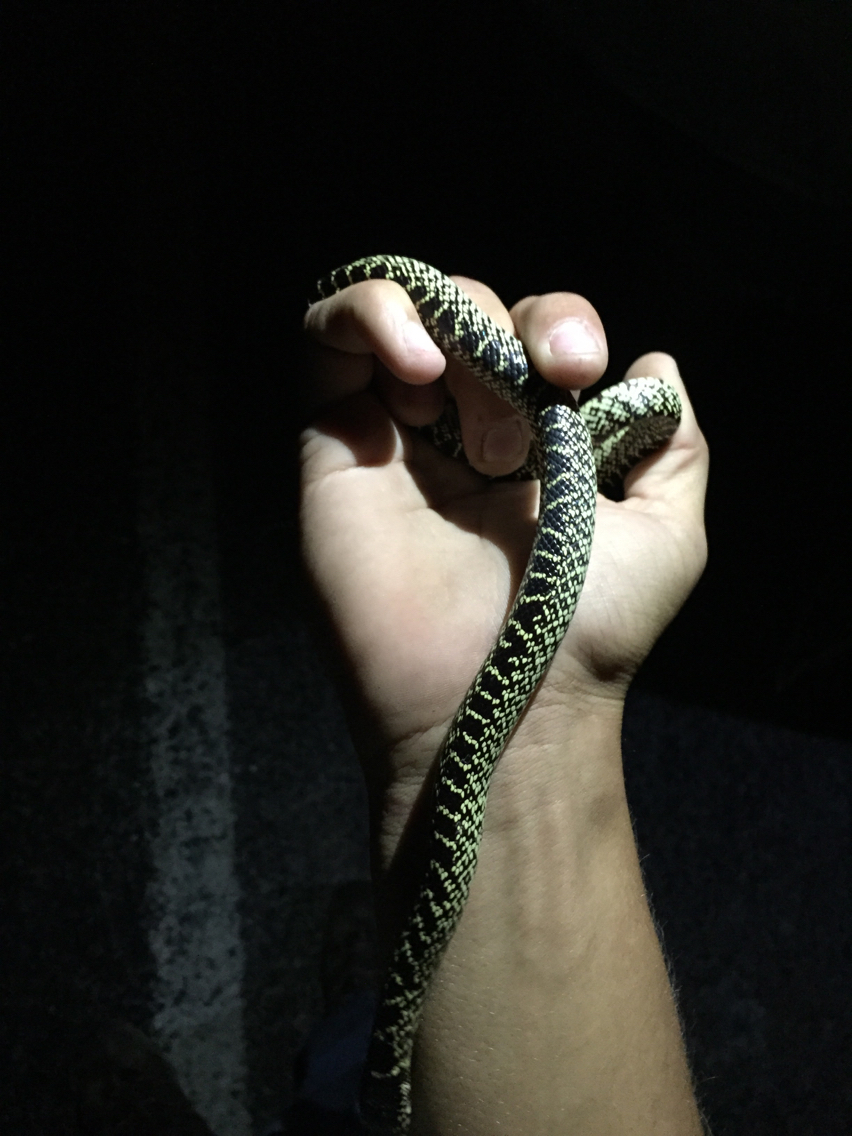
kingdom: Animalia
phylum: Chordata
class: Squamata
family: Colubridae
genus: Lampropeltis
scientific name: Lampropeltis splendida
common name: Desert kingsnake
